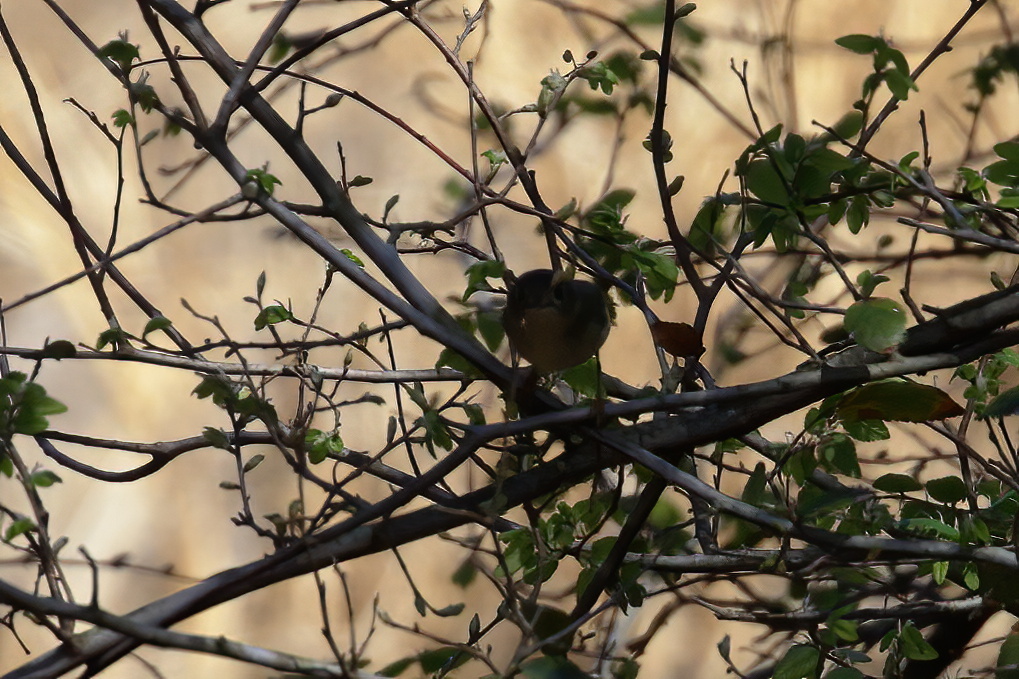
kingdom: Animalia
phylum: Chordata
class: Aves
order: Passeriformes
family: Regulidae
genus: Regulus
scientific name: Regulus calendula
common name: Ruby-crowned kinglet
